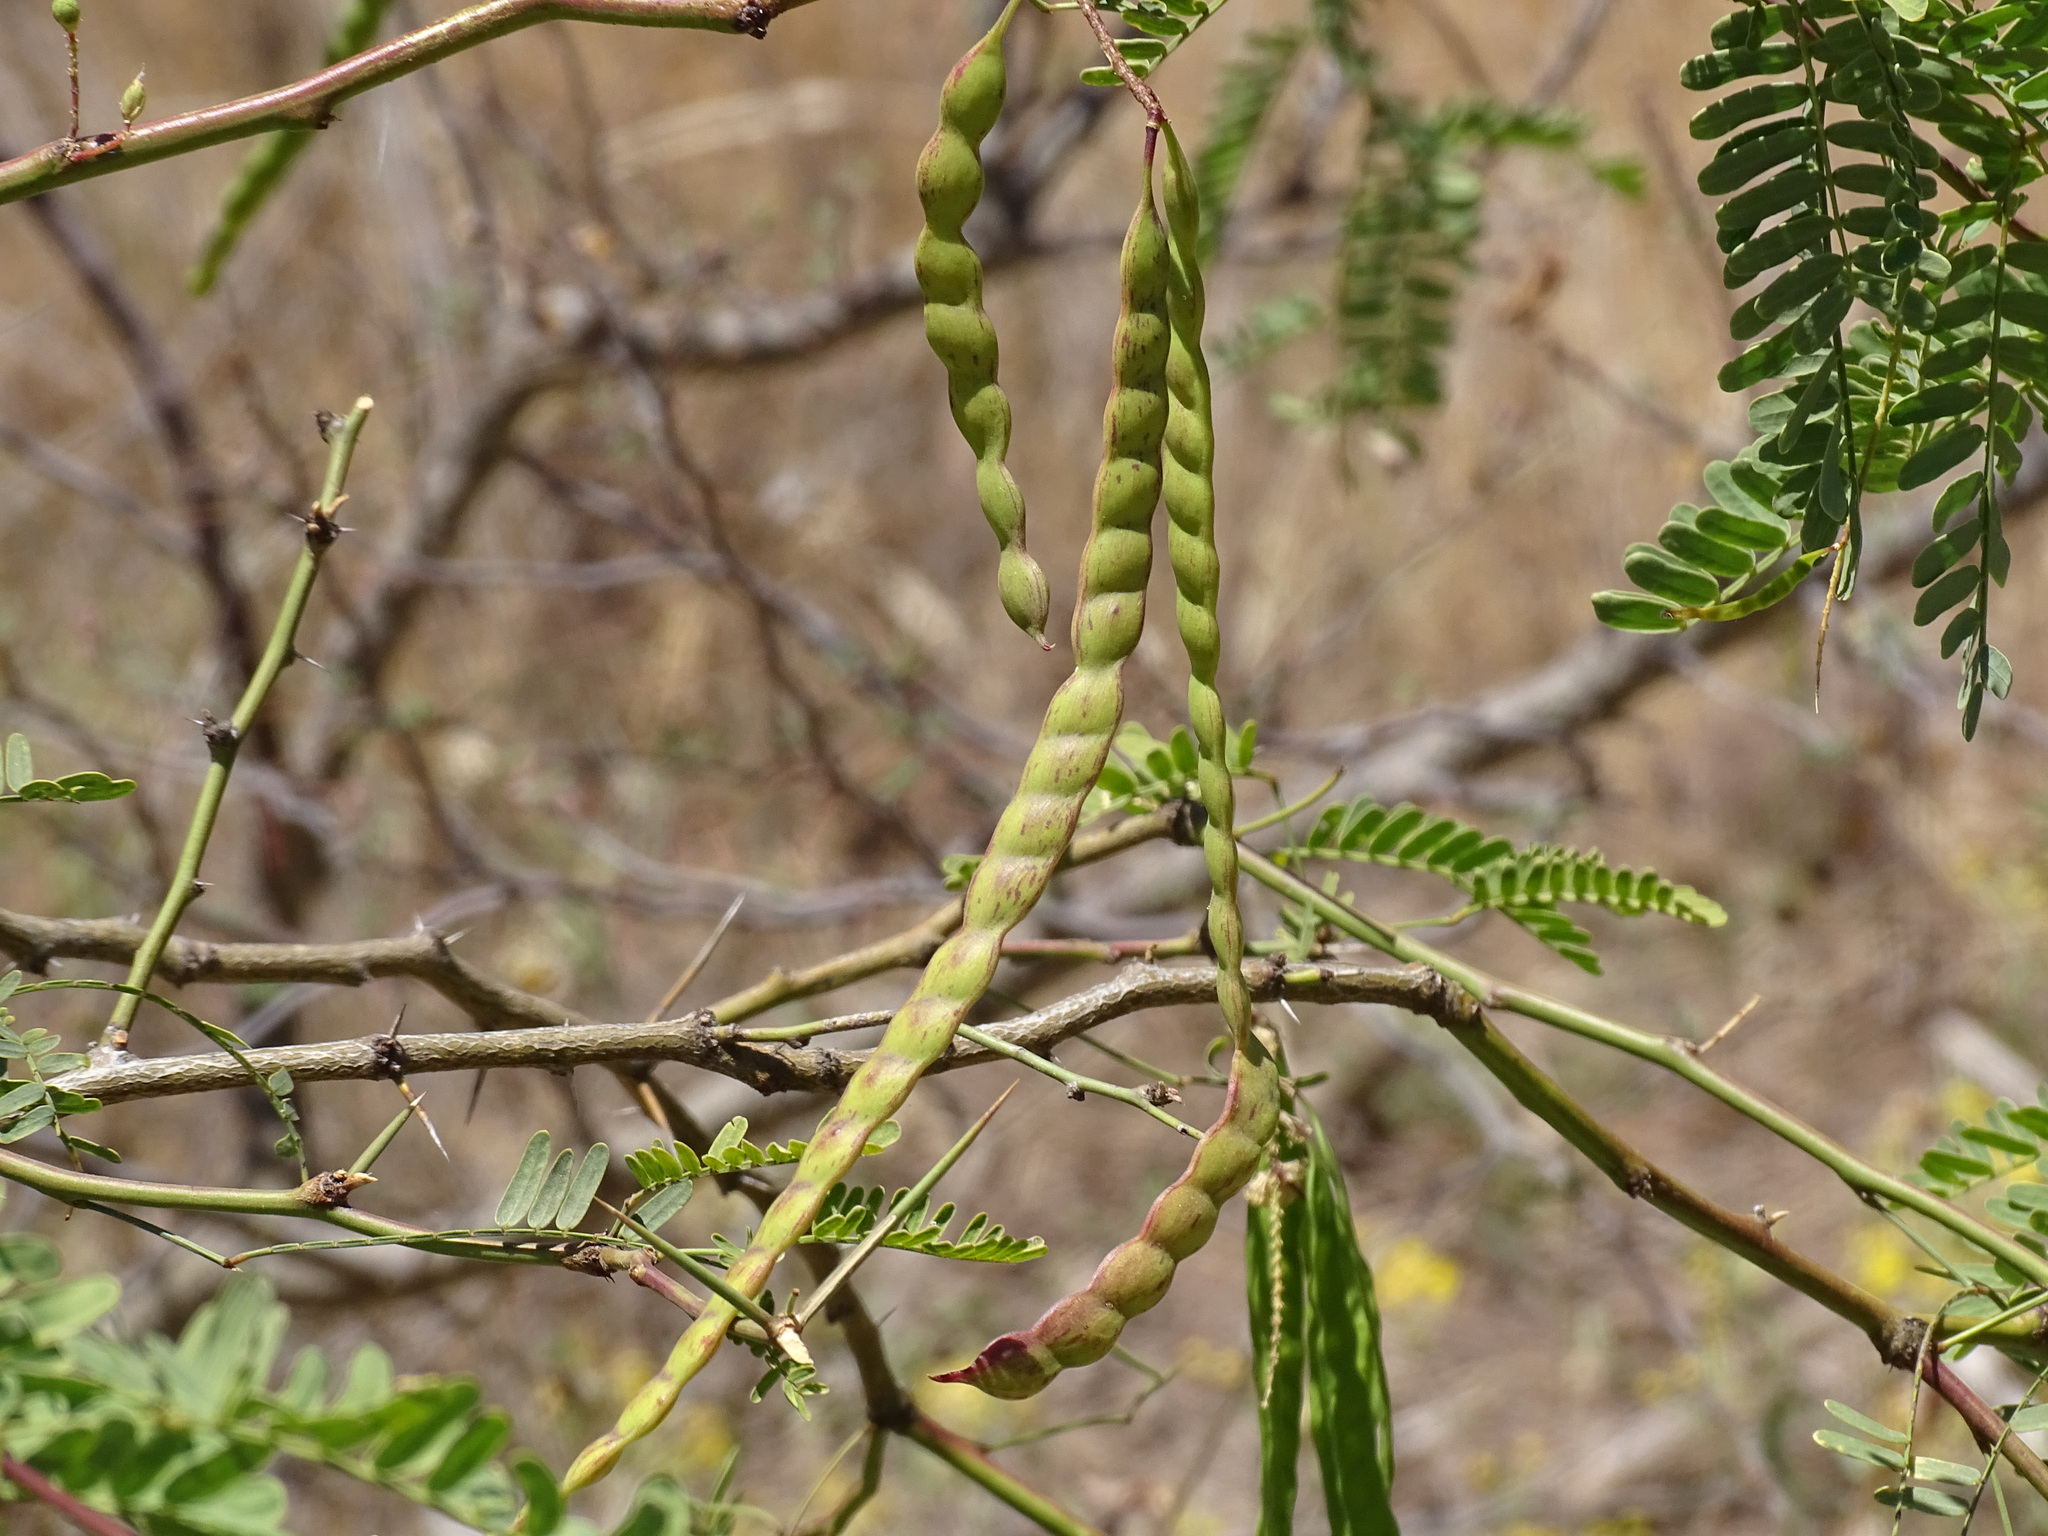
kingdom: Plantae
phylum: Tracheophyta
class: Magnoliopsida
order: Fabales
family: Fabaceae
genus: Prosopis
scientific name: Prosopis yaquiana
